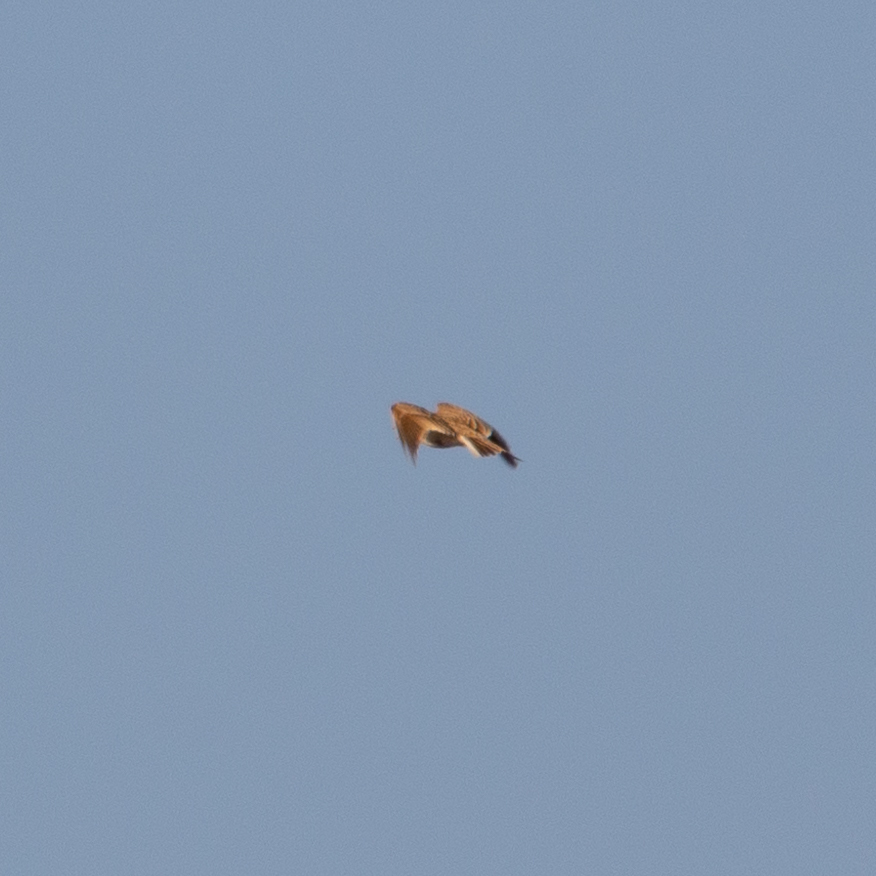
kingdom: Animalia
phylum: Chordata
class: Aves
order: Passeriformes
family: Alaudidae
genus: Alauda
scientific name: Alauda arvensis
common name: Eurasian skylark
